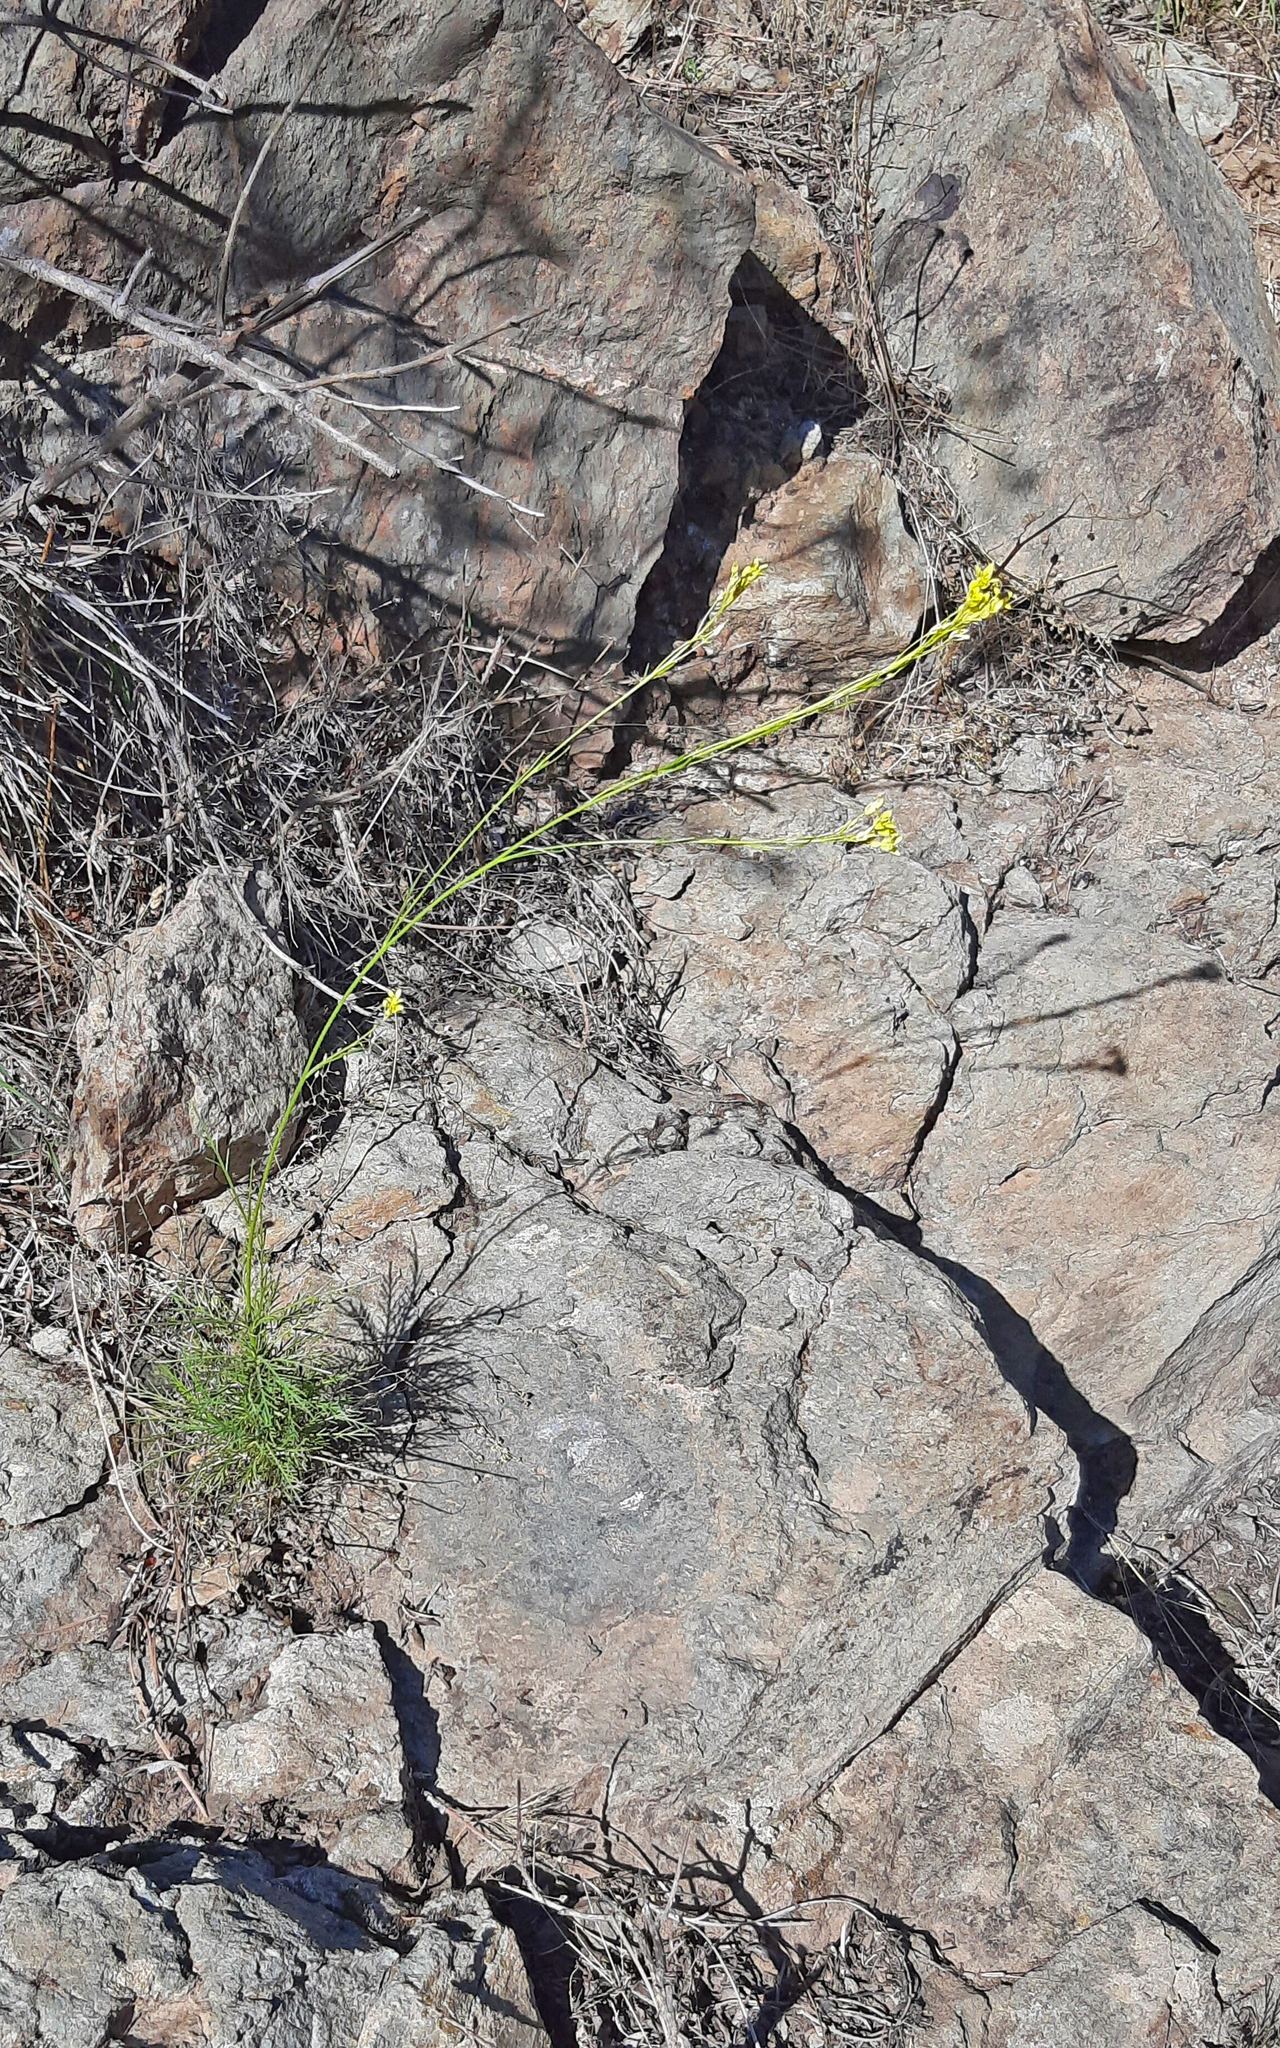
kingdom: Plantae
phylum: Tracheophyta
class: Magnoliopsida
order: Brassicales
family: Brassicaceae
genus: Descurainia
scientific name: Descurainia preauxiana
